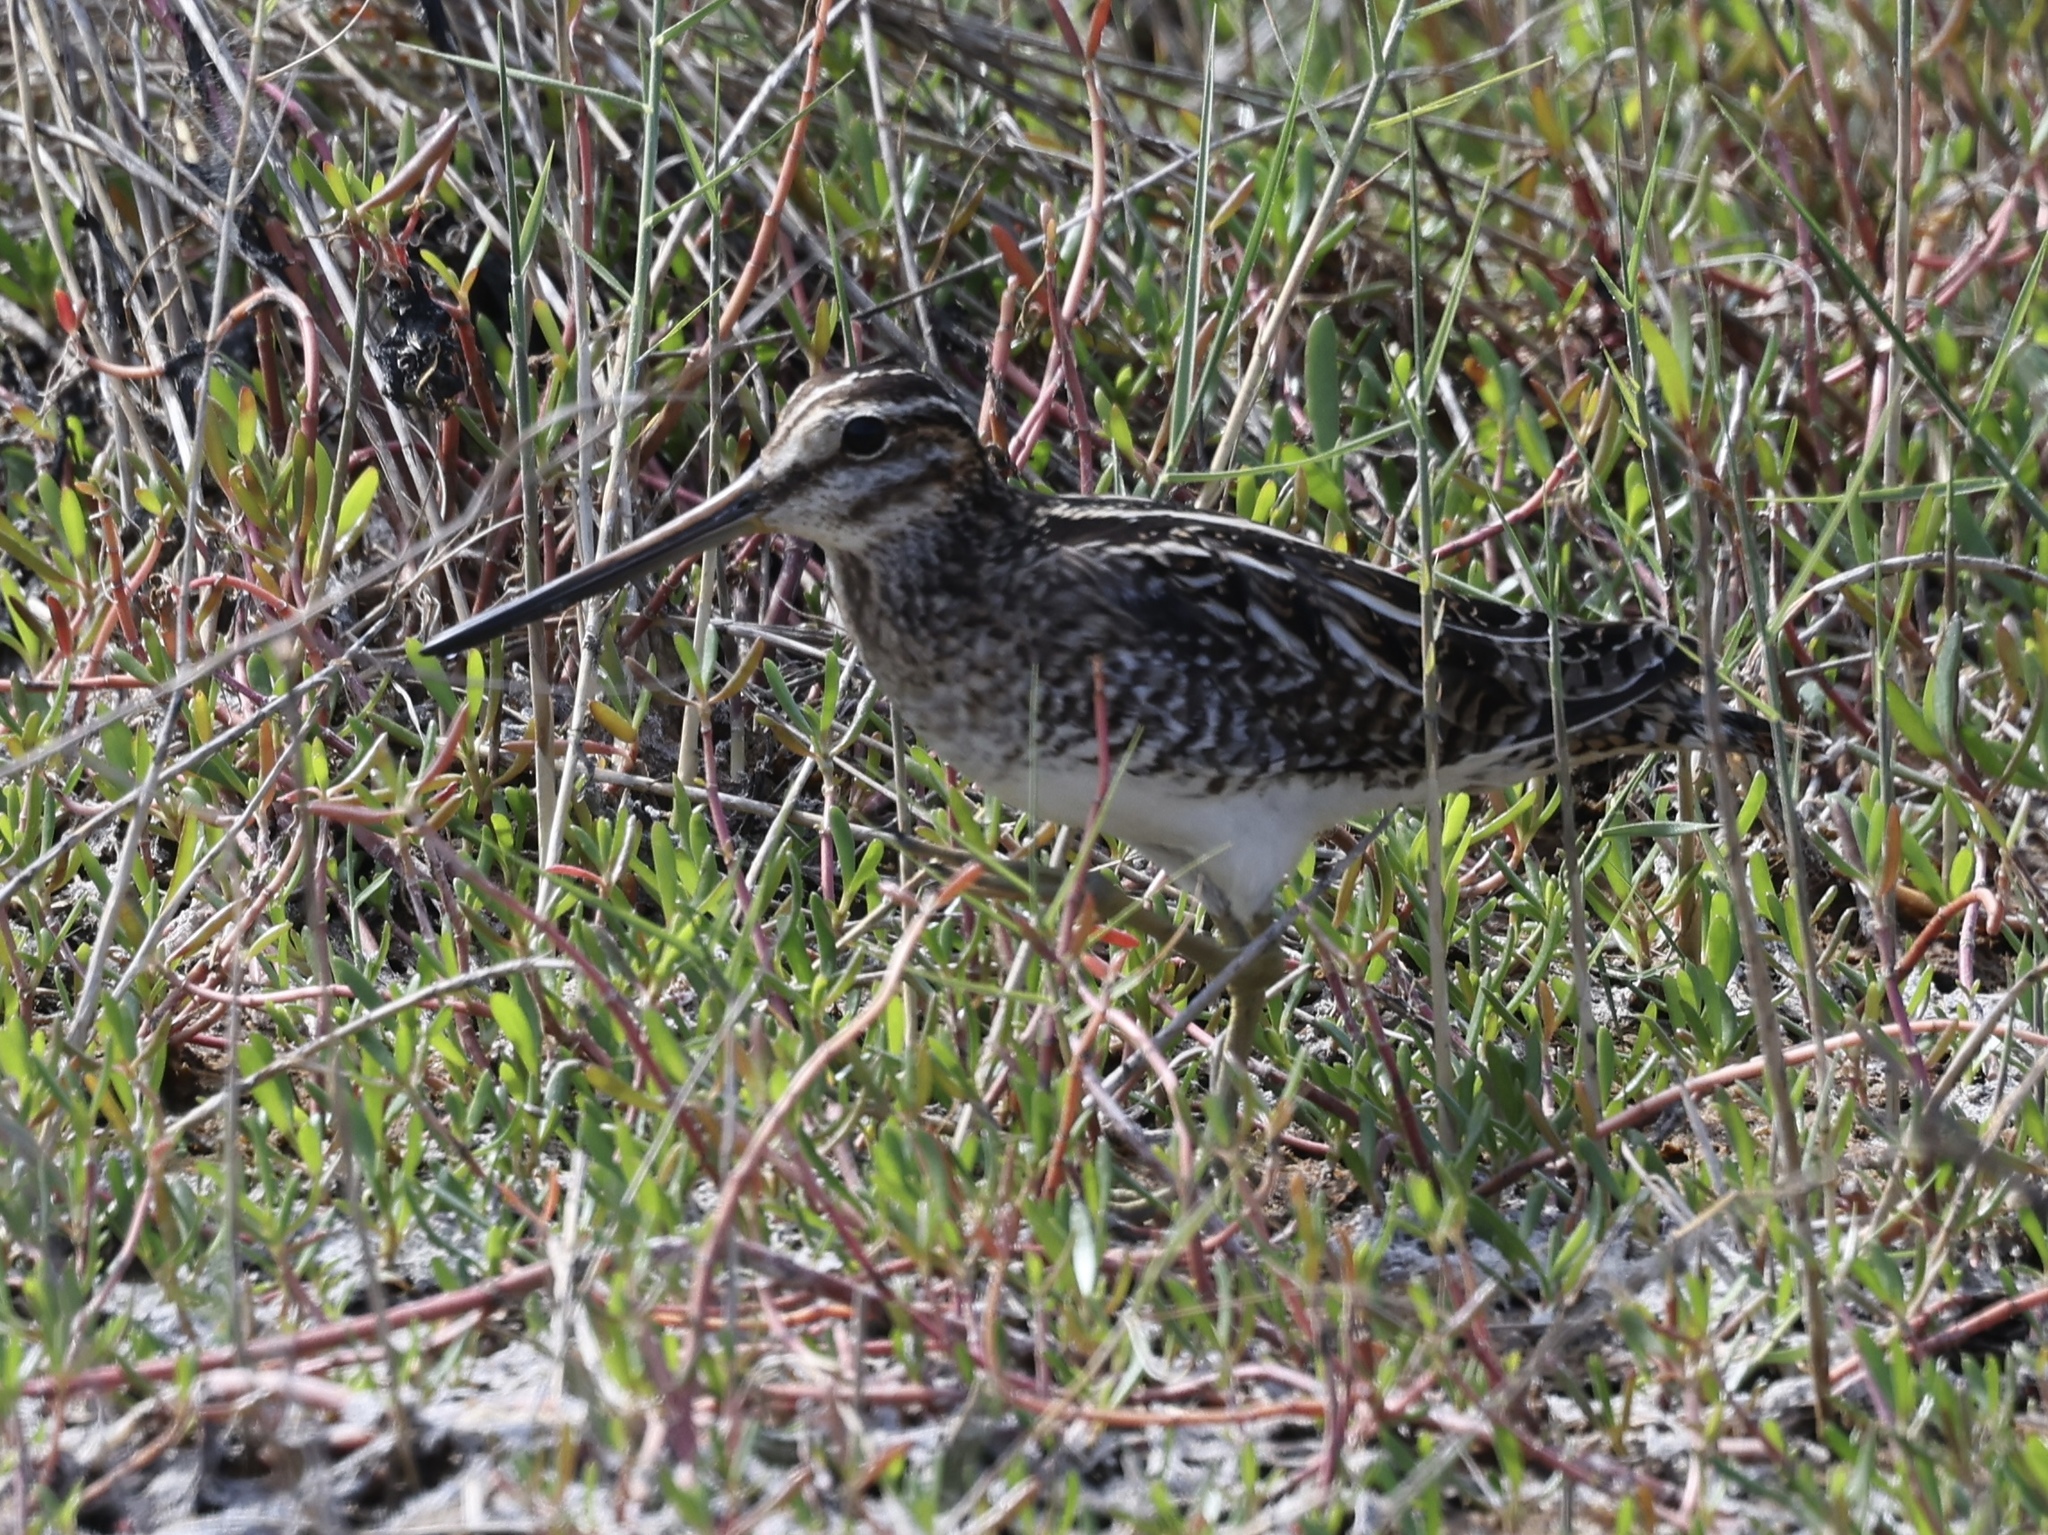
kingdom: Animalia
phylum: Chordata
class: Aves
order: Charadriiformes
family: Scolopacidae
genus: Gallinago
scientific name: Gallinago delicata
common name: Wilson's snipe
